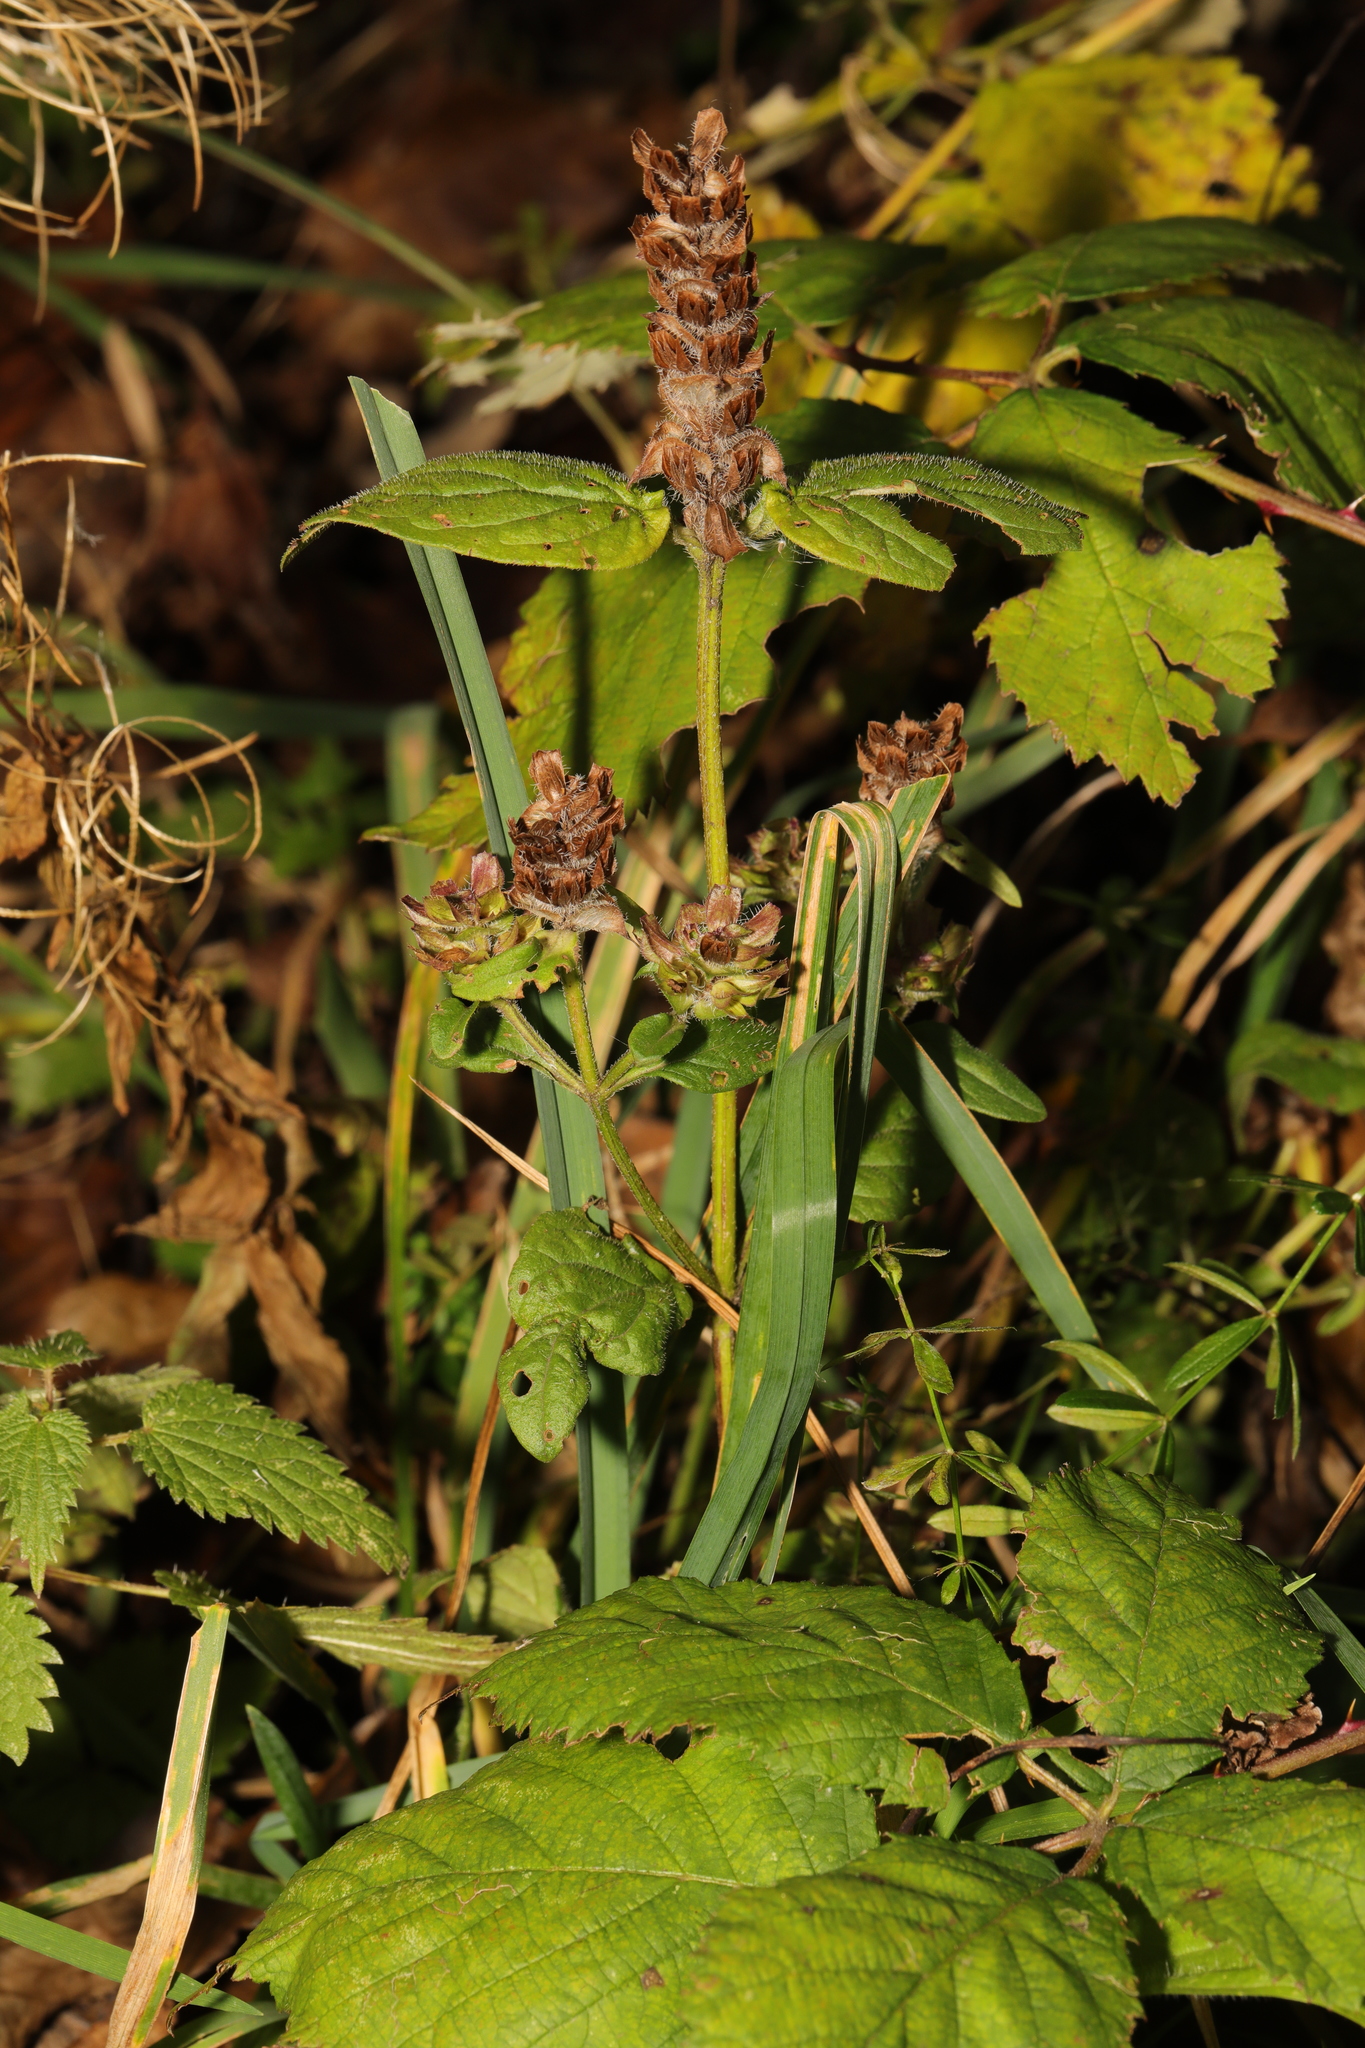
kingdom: Plantae
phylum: Tracheophyta
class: Magnoliopsida
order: Lamiales
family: Lamiaceae
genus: Prunella
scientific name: Prunella vulgaris
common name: Heal-all
